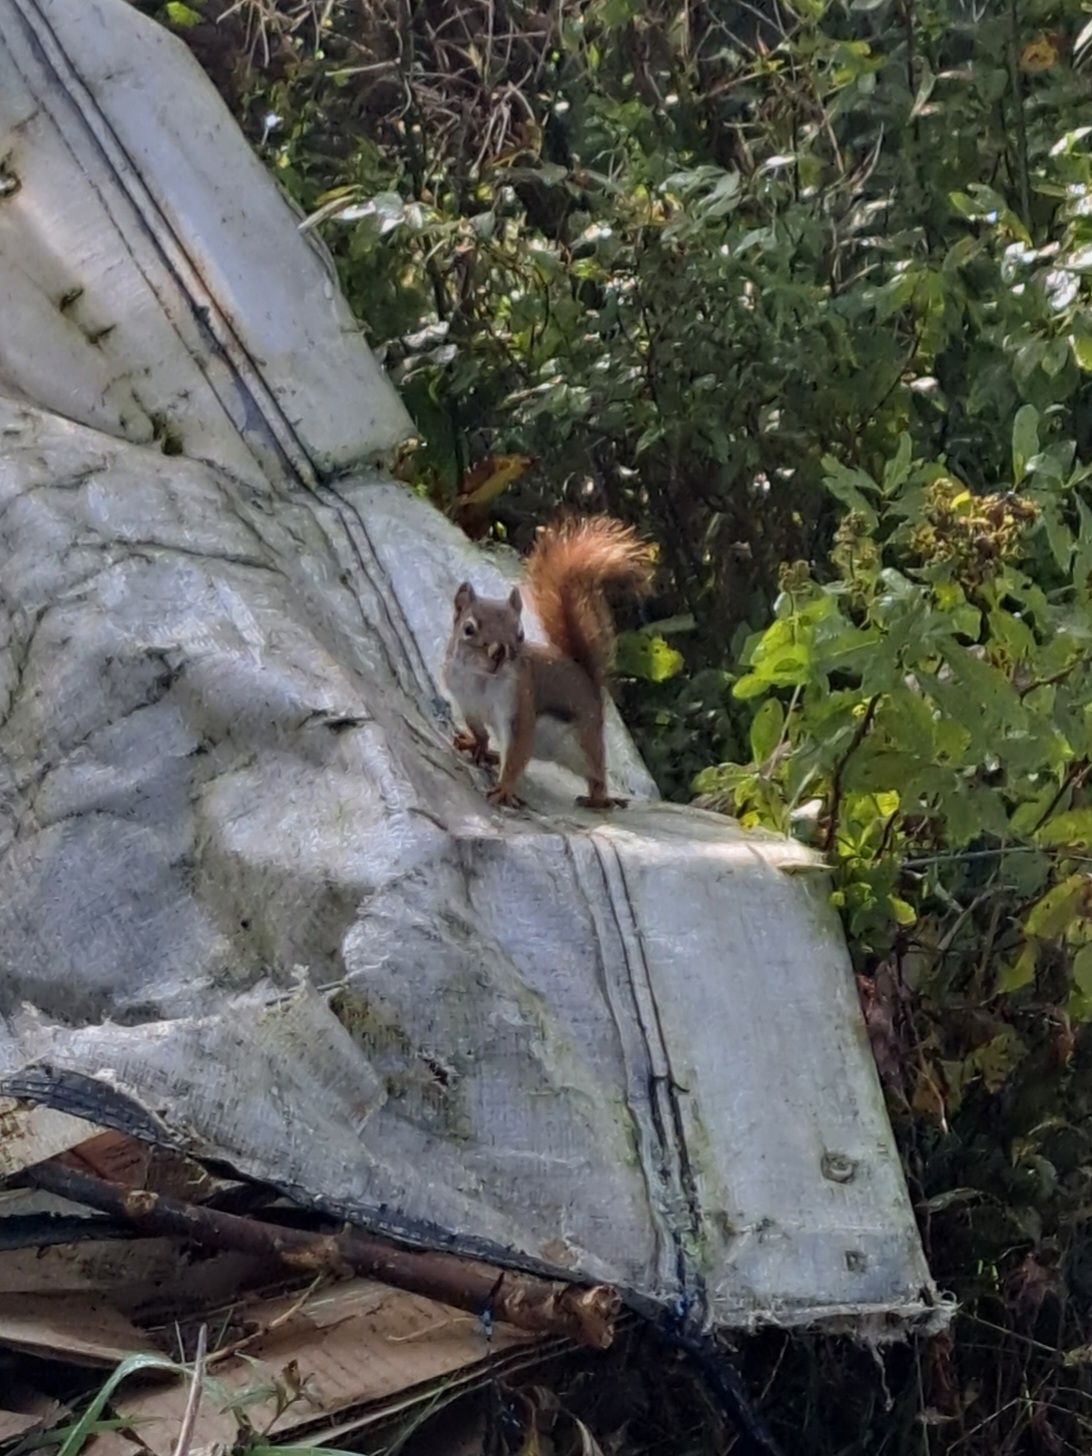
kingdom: Animalia
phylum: Chordata
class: Mammalia
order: Rodentia
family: Sciuridae
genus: Tamiasciurus
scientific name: Tamiasciurus hudsonicus
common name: Red squirrel
